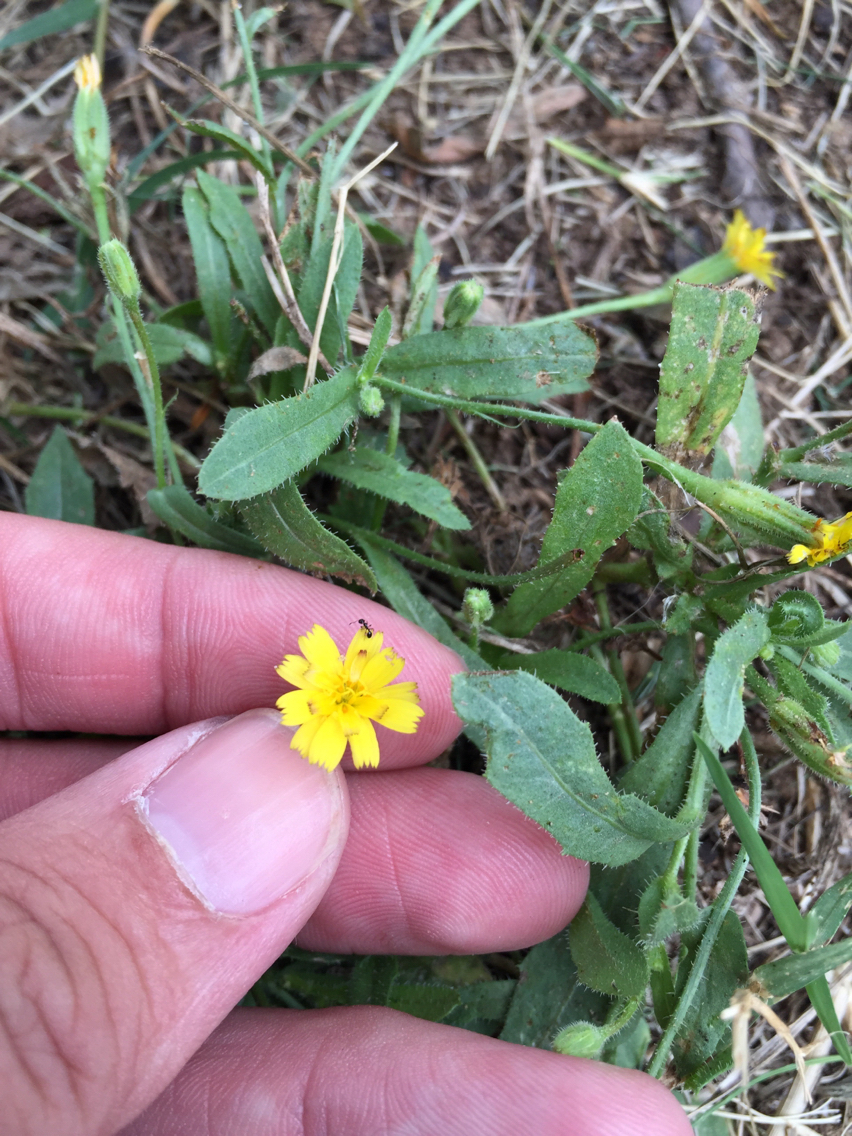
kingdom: Plantae
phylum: Tracheophyta
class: Magnoliopsida
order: Asterales
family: Asteraceae
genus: Hedypnois
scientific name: Hedypnois rhagadioloides
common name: Cretan weed
